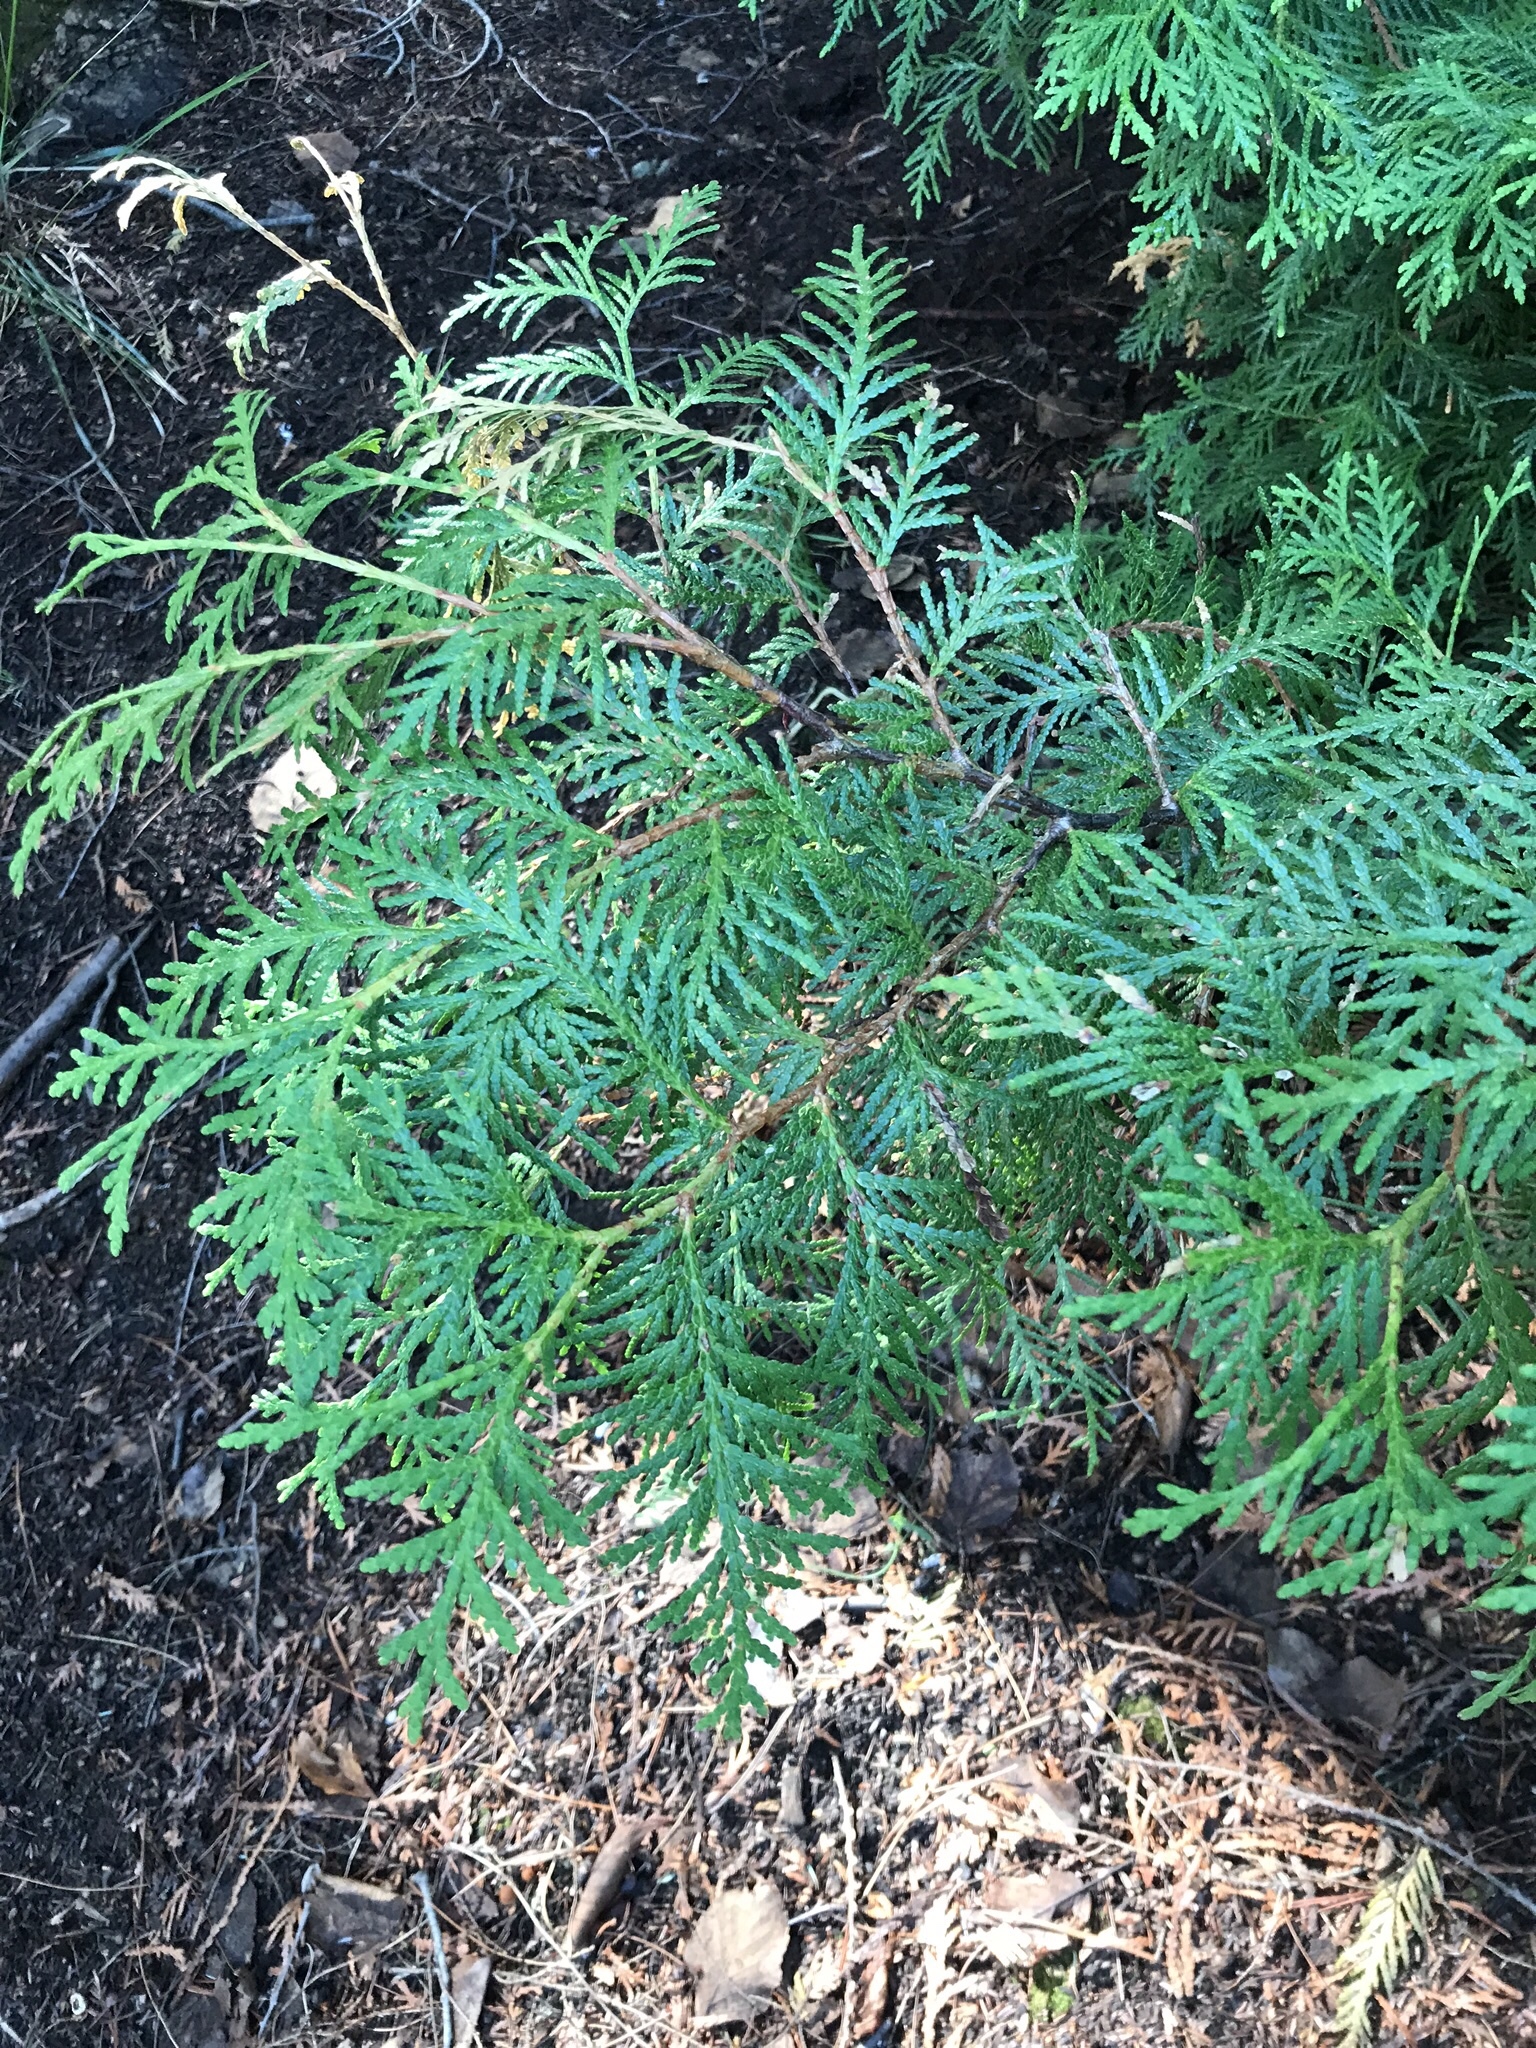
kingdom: Plantae
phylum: Tracheophyta
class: Pinopsida
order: Pinales
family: Cupressaceae
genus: Thuja
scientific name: Thuja occidentalis
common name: Northern white-cedar
